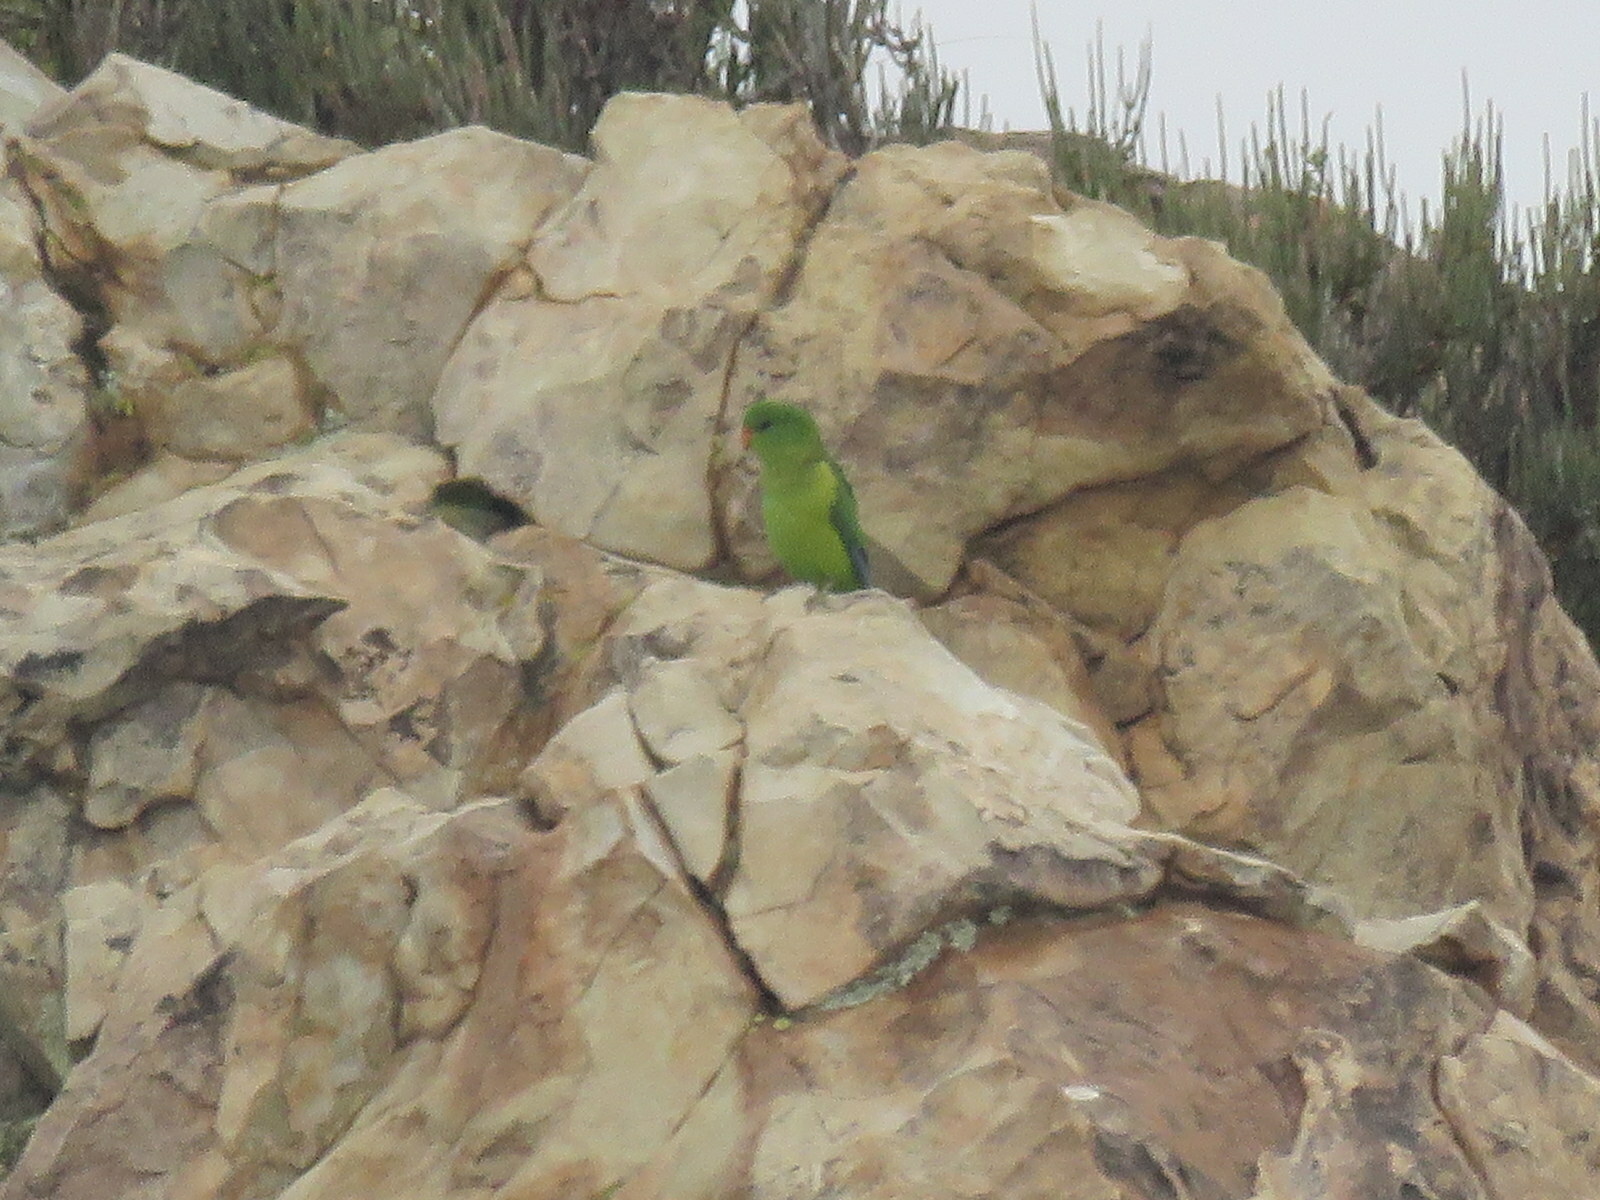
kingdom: Animalia
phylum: Chordata
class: Aves
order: Psittaciformes
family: Psittacidae
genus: Psilopsiagon
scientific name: Psilopsiagon aurifrons
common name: Mountain parakeet
